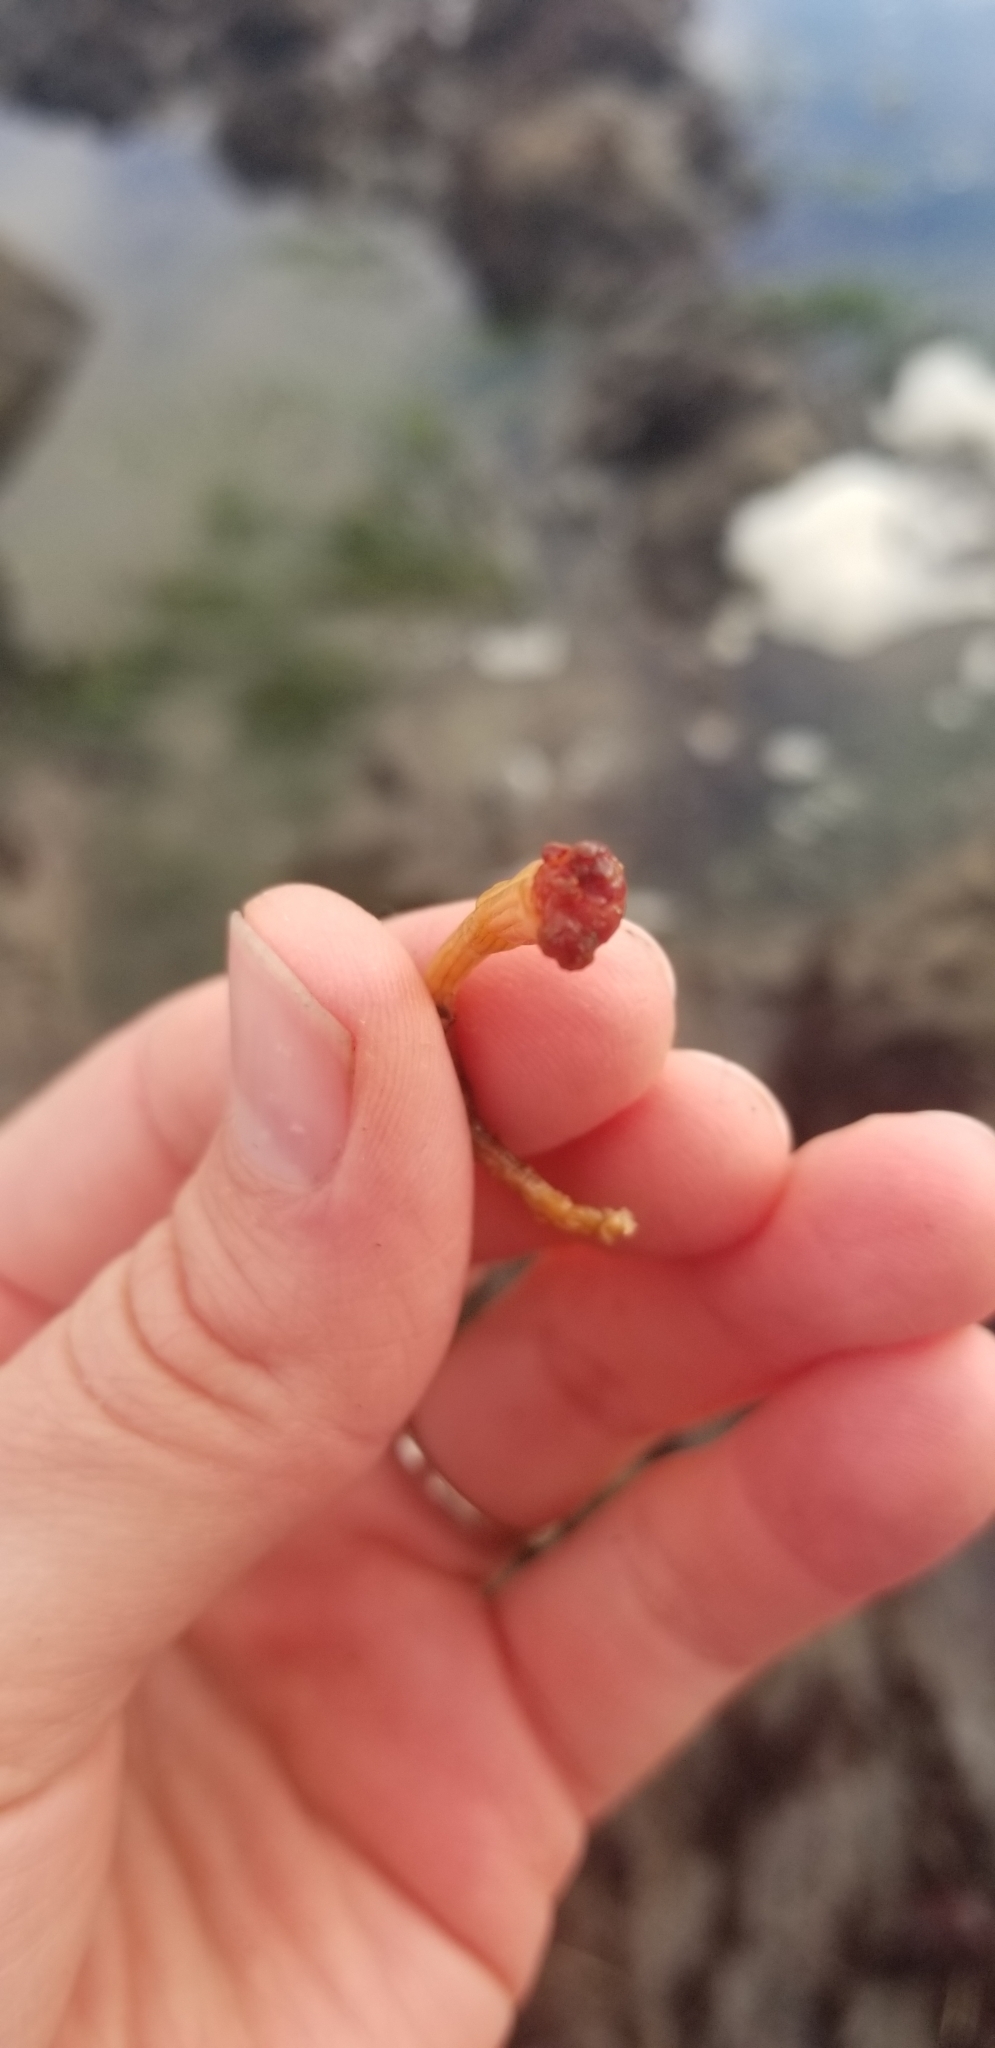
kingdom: Animalia
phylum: Chordata
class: Ascidiacea
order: Stolidobranchia
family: Styelidae
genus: Styela
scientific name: Styela montereyensis
